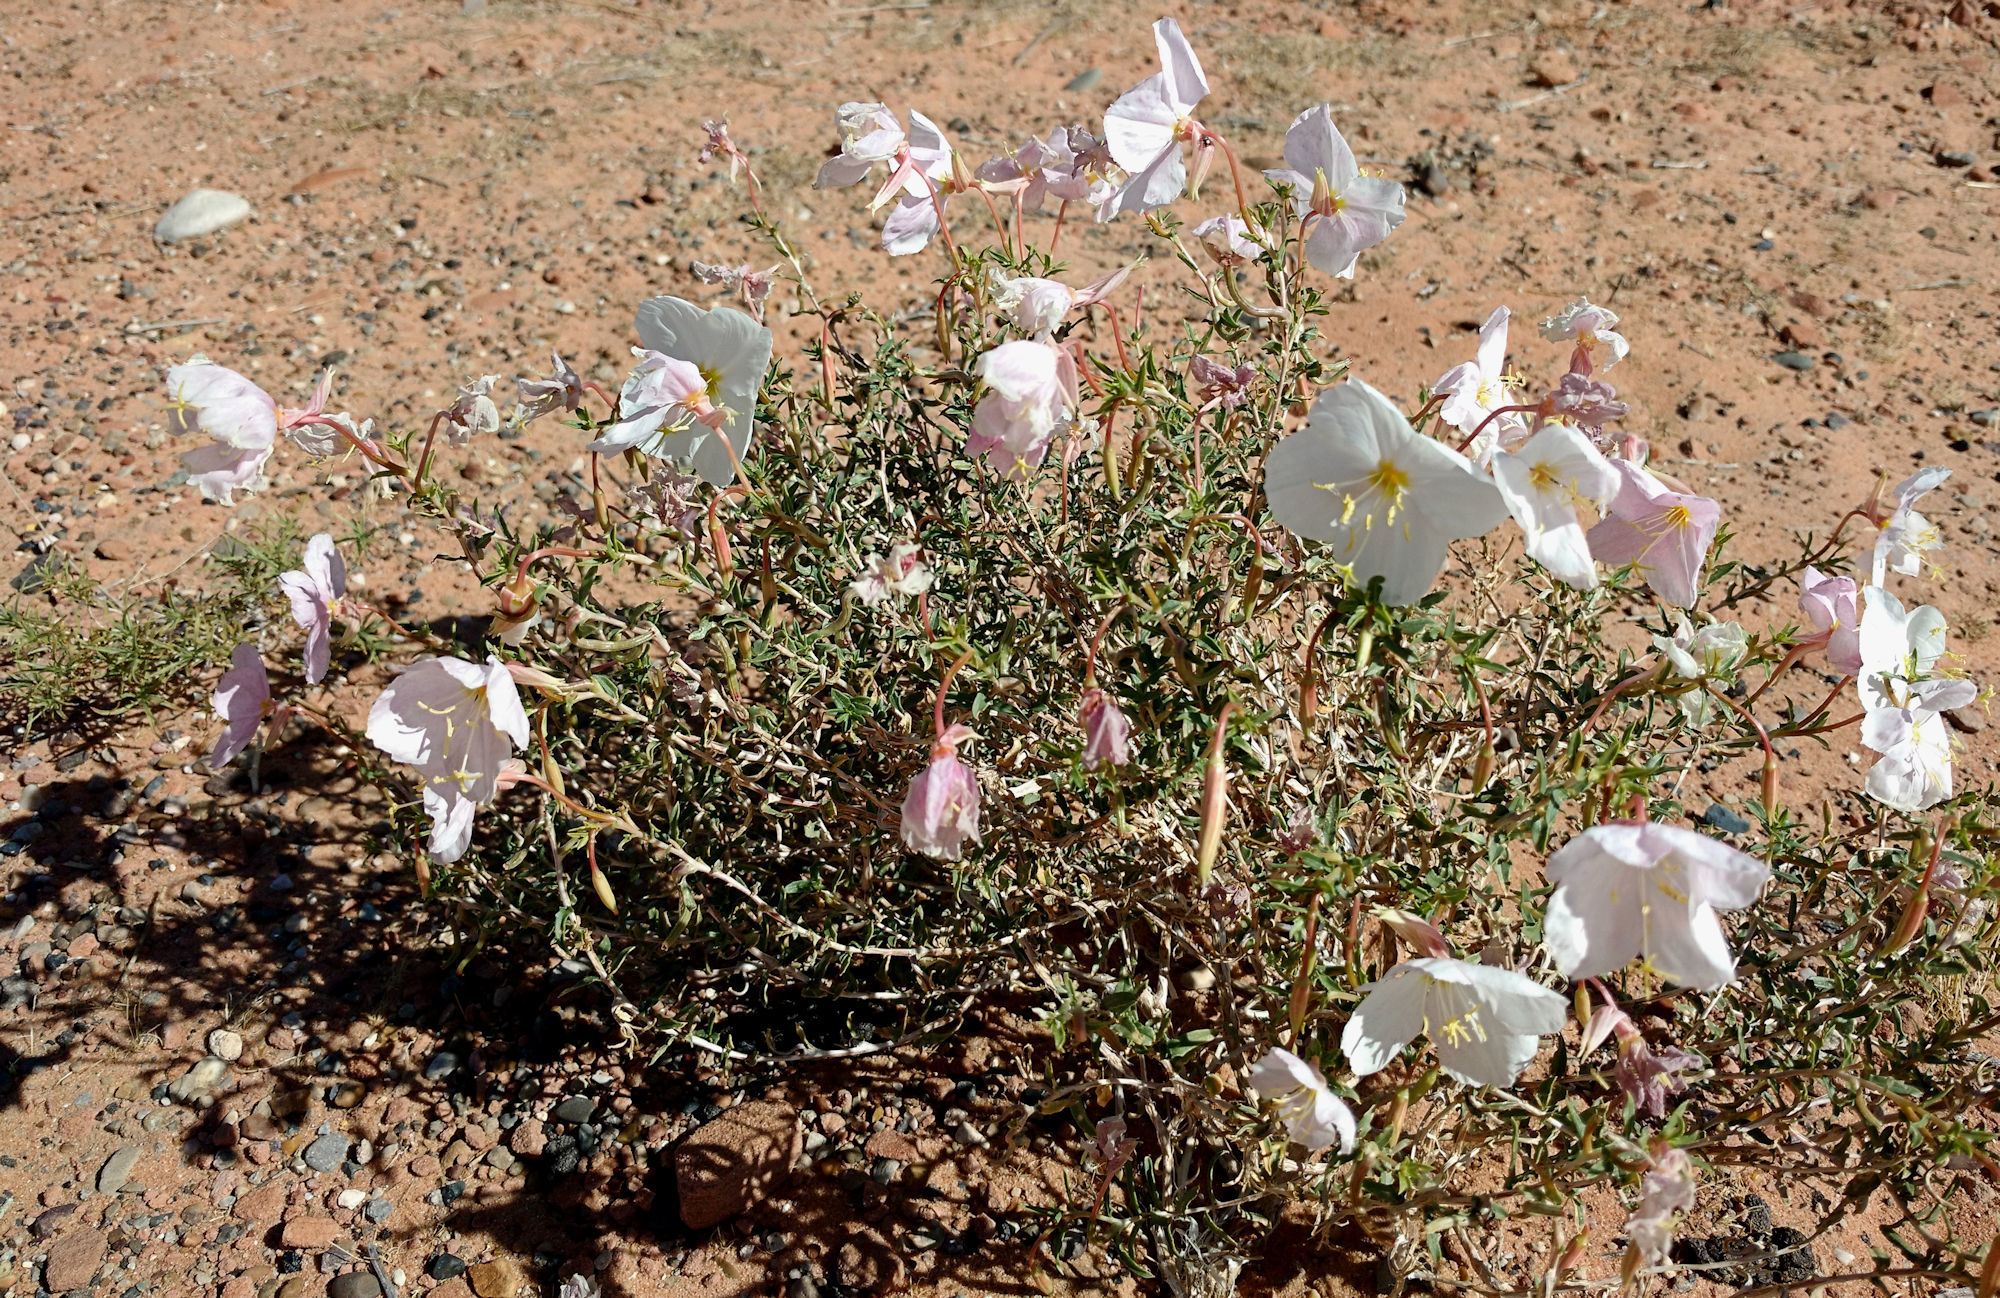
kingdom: Plantae
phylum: Tracheophyta
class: Magnoliopsida
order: Myrtales
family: Onagraceae
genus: Oenothera
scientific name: Oenothera pallida
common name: Pale evening-primrose
